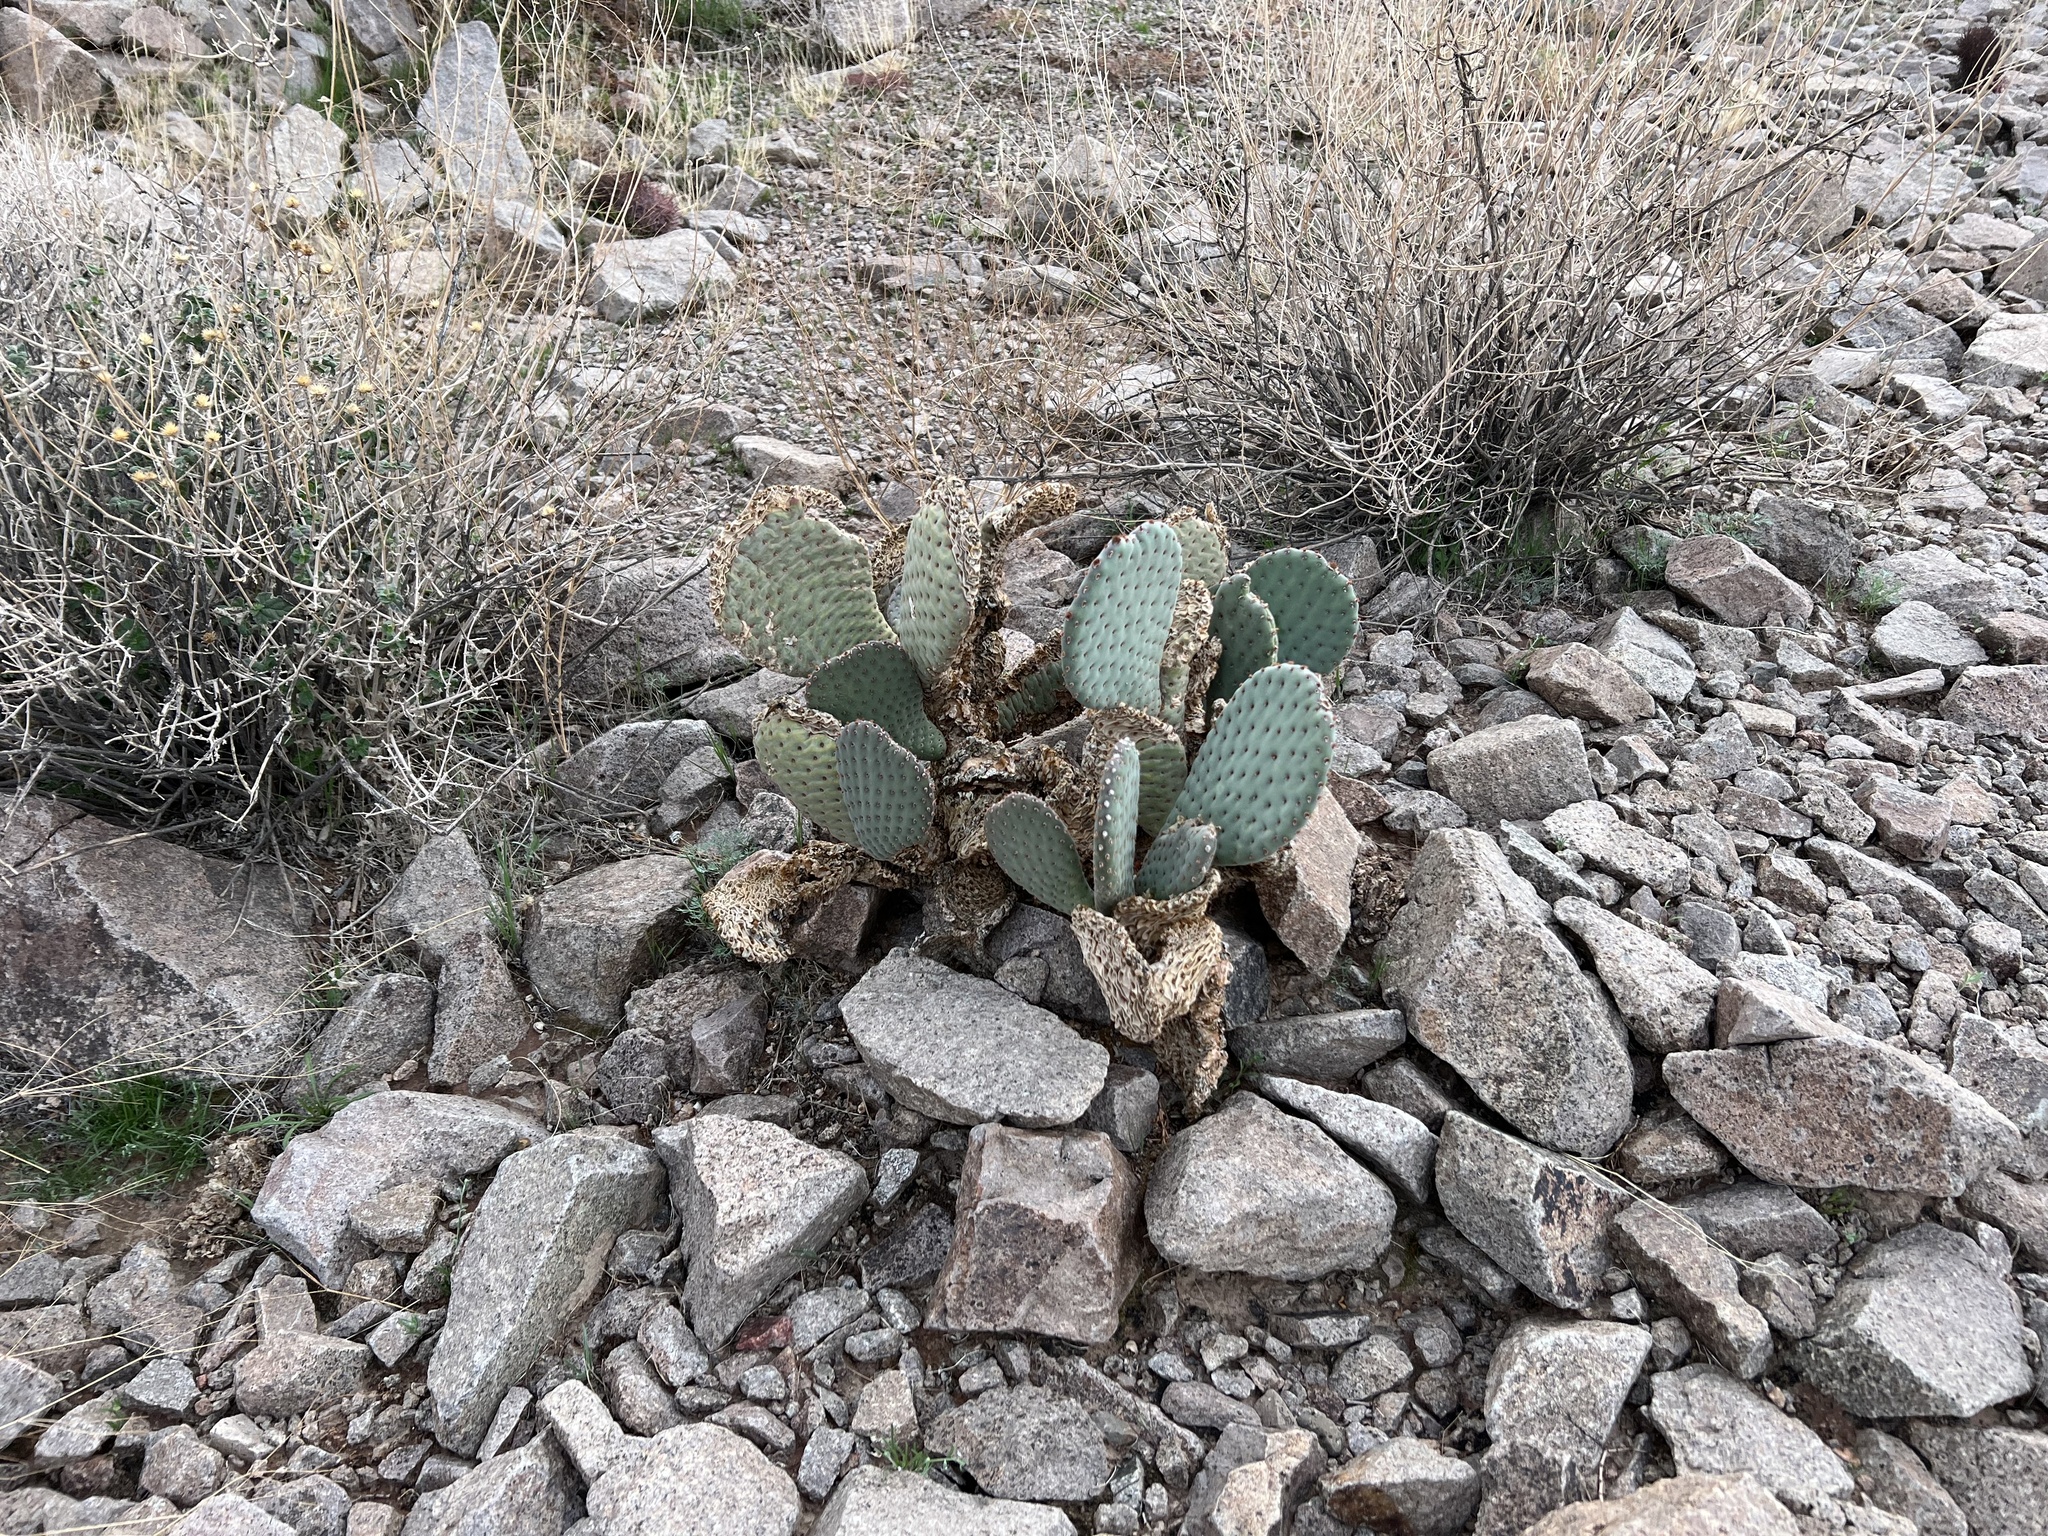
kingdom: Plantae
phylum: Tracheophyta
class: Magnoliopsida
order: Caryophyllales
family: Cactaceae
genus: Opuntia
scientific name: Opuntia basilaris
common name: Beavertail prickly-pear
